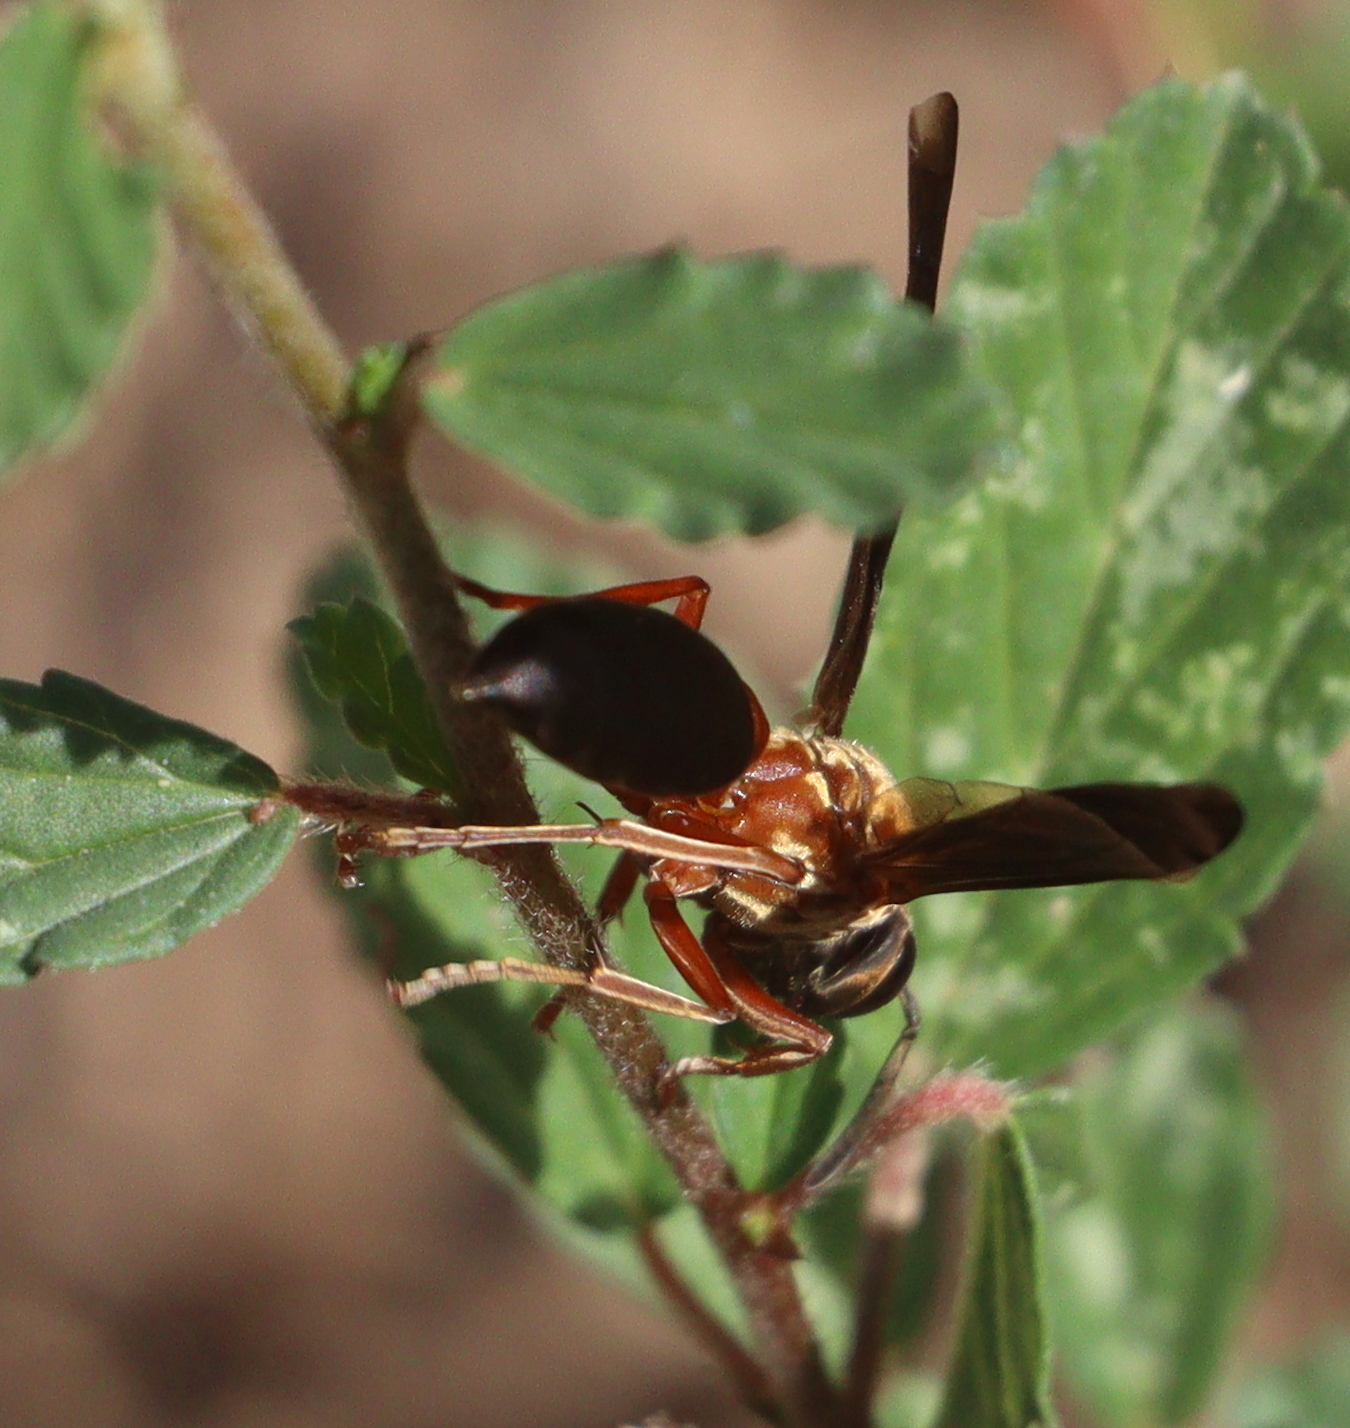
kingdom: Animalia
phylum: Arthropoda
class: Insecta
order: Hymenoptera
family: Eumenidae
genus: Polybia
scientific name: Polybia sericea
